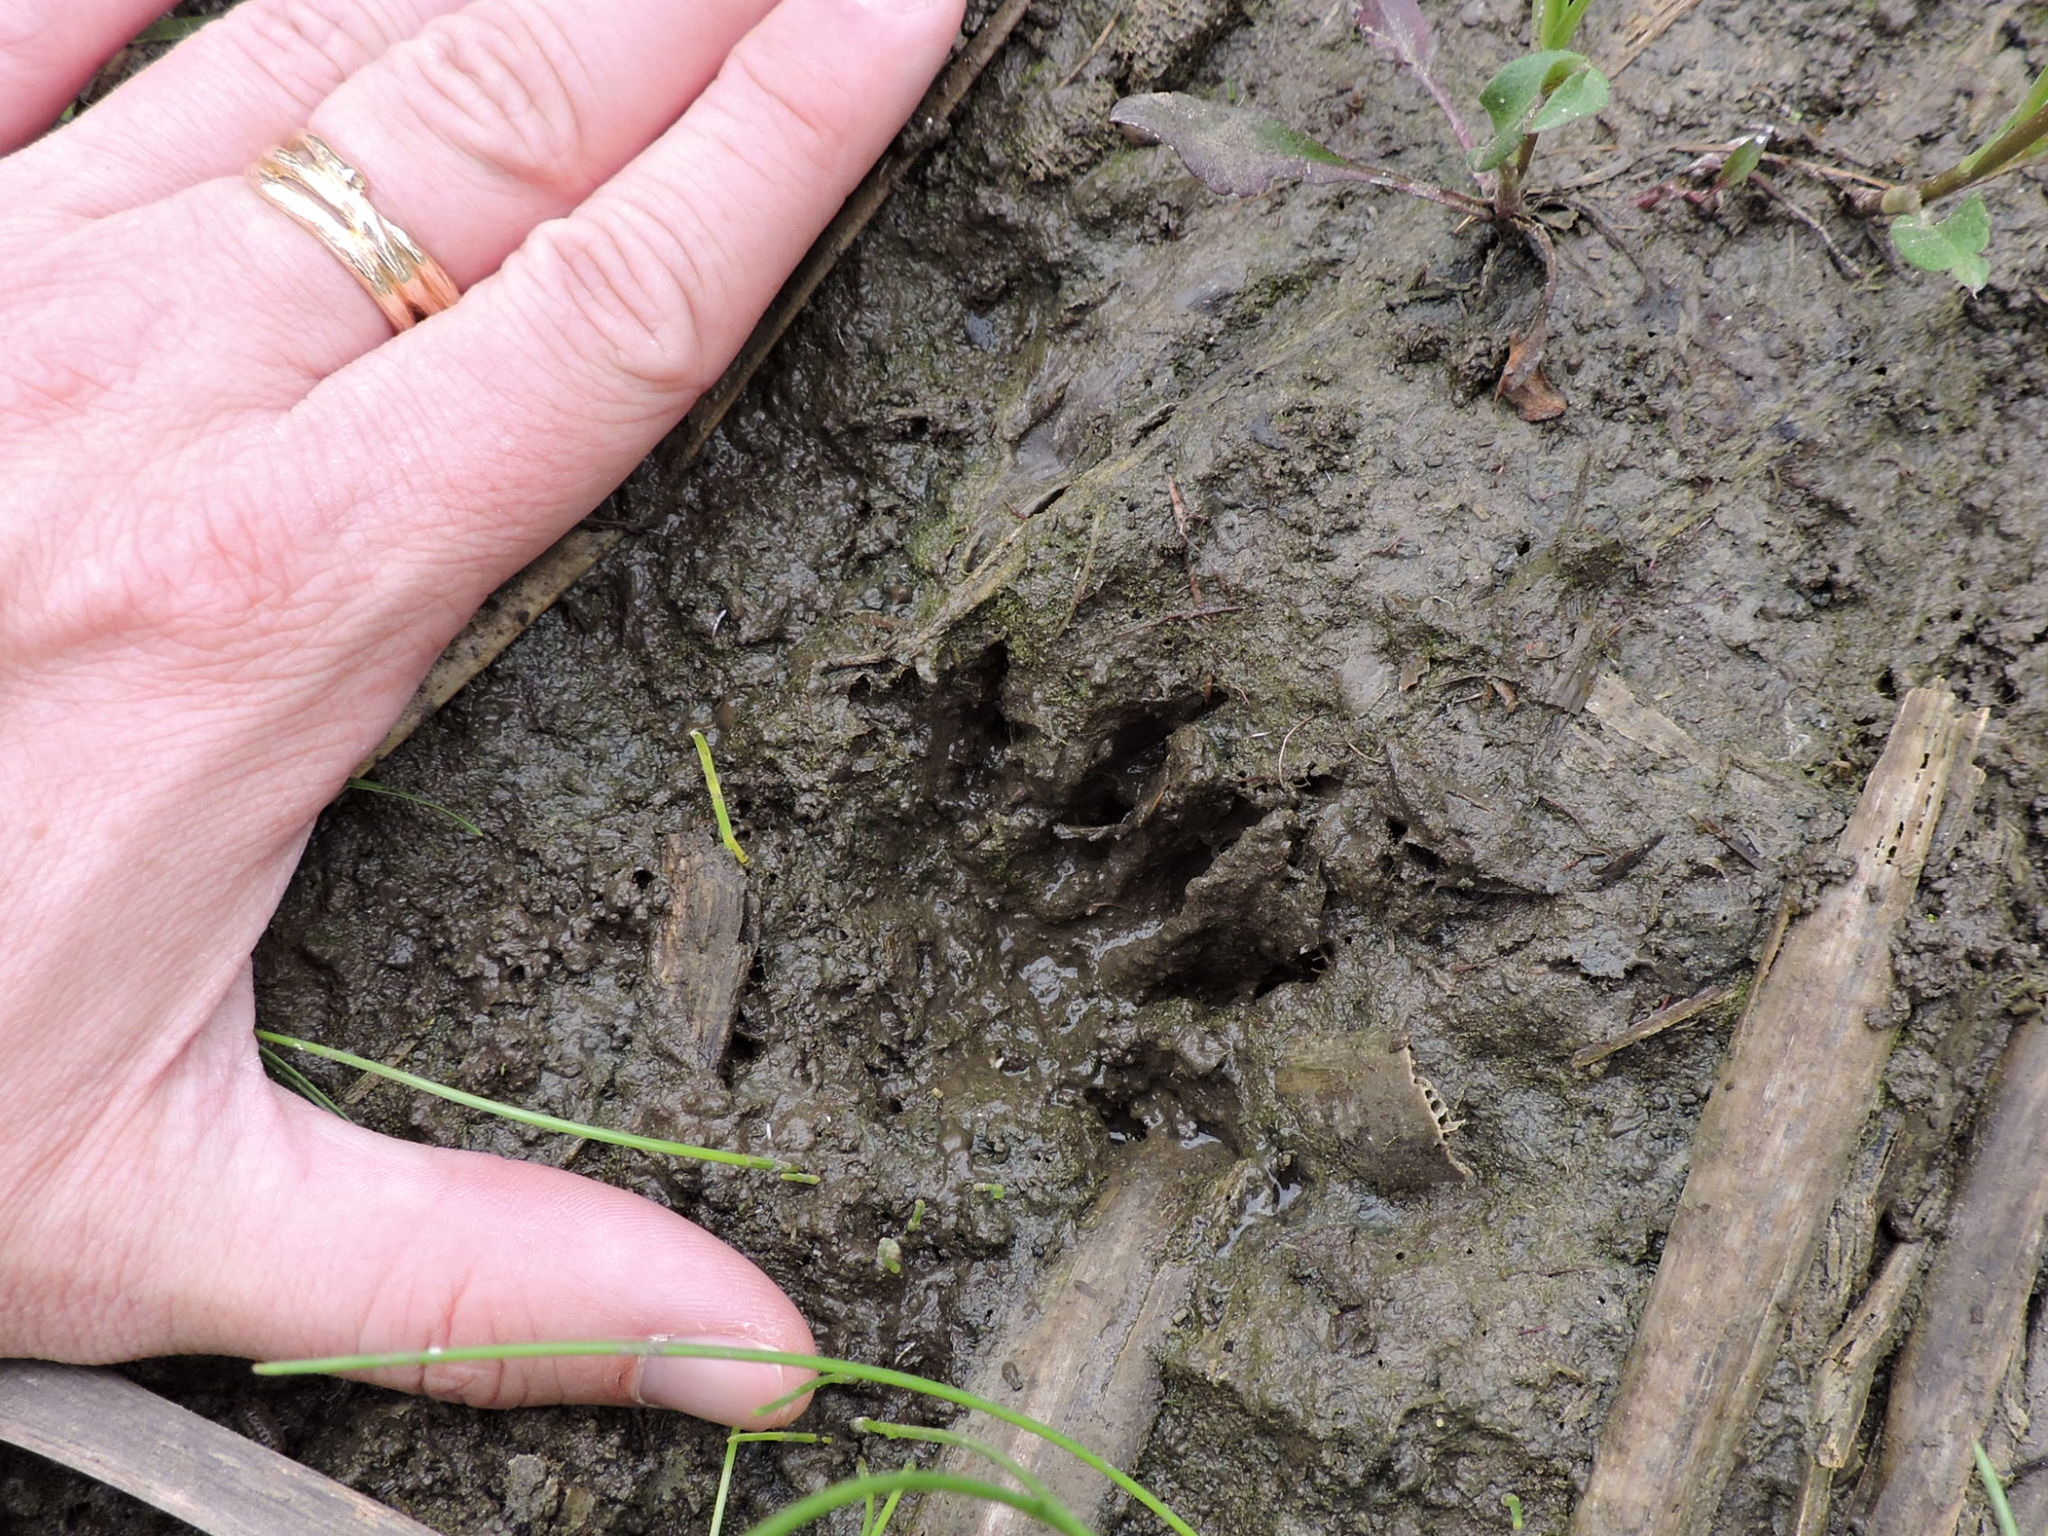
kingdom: Animalia
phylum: Chordata
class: Mammalia
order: Carnivora
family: Procyonidae
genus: Procyon
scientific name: Procyon lotor
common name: Raccoon
